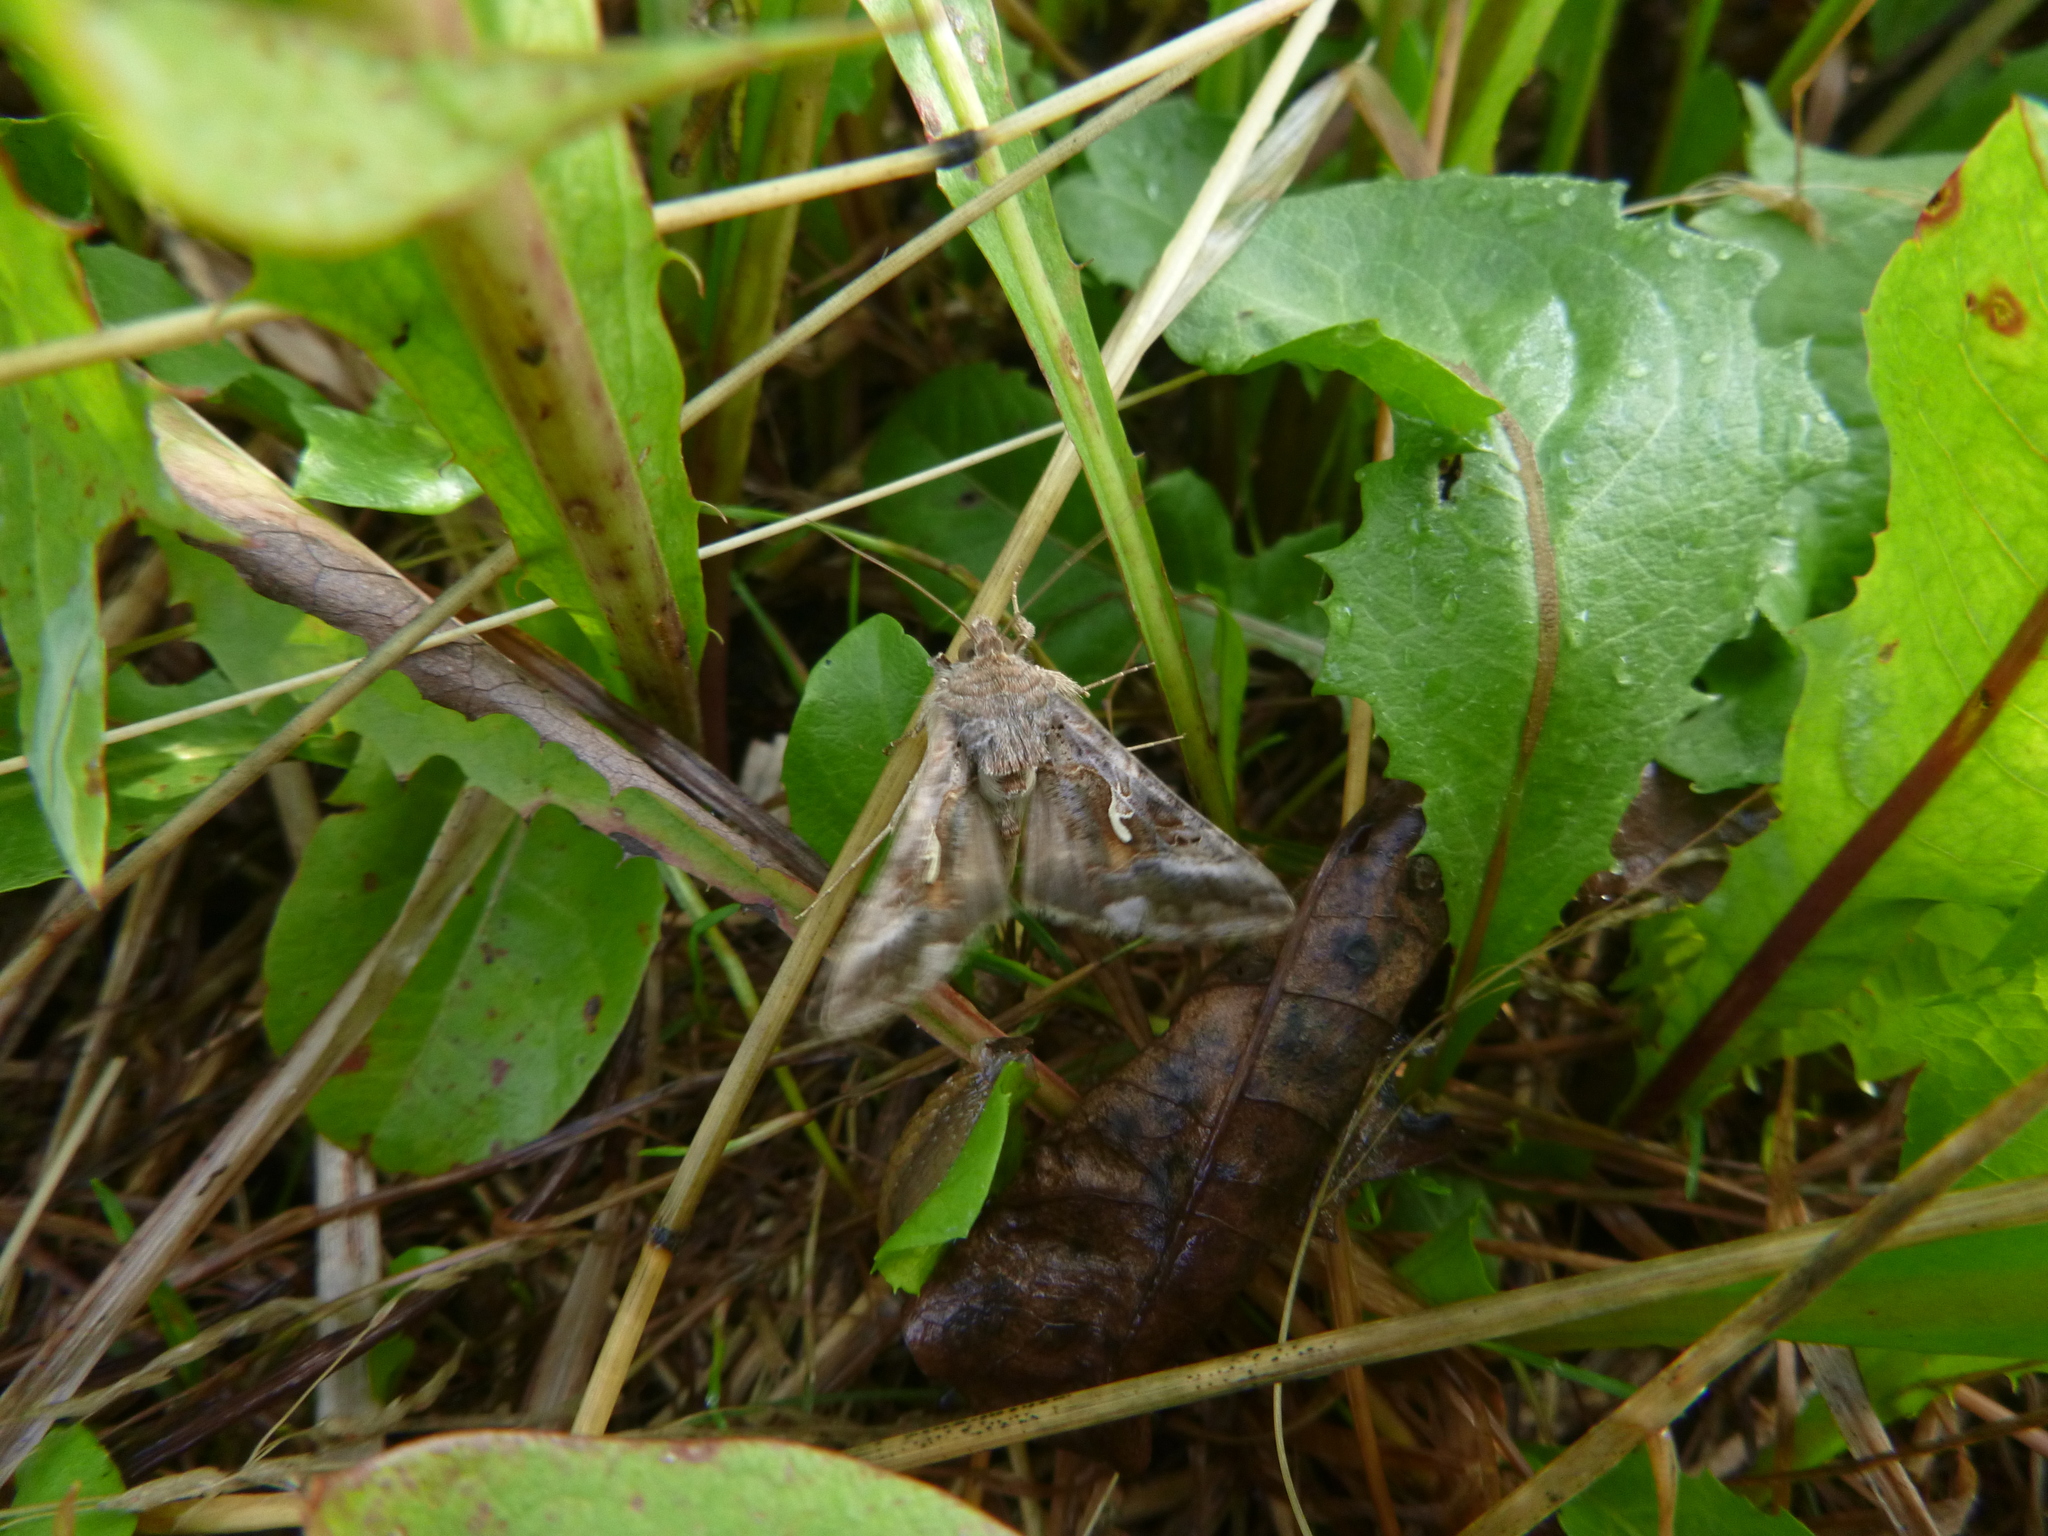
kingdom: Animalia
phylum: Arthropoda
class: Insecta
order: Lepidoptera
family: Noctuidae
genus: Autographa
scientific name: Autographa gamma
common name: Silver y
